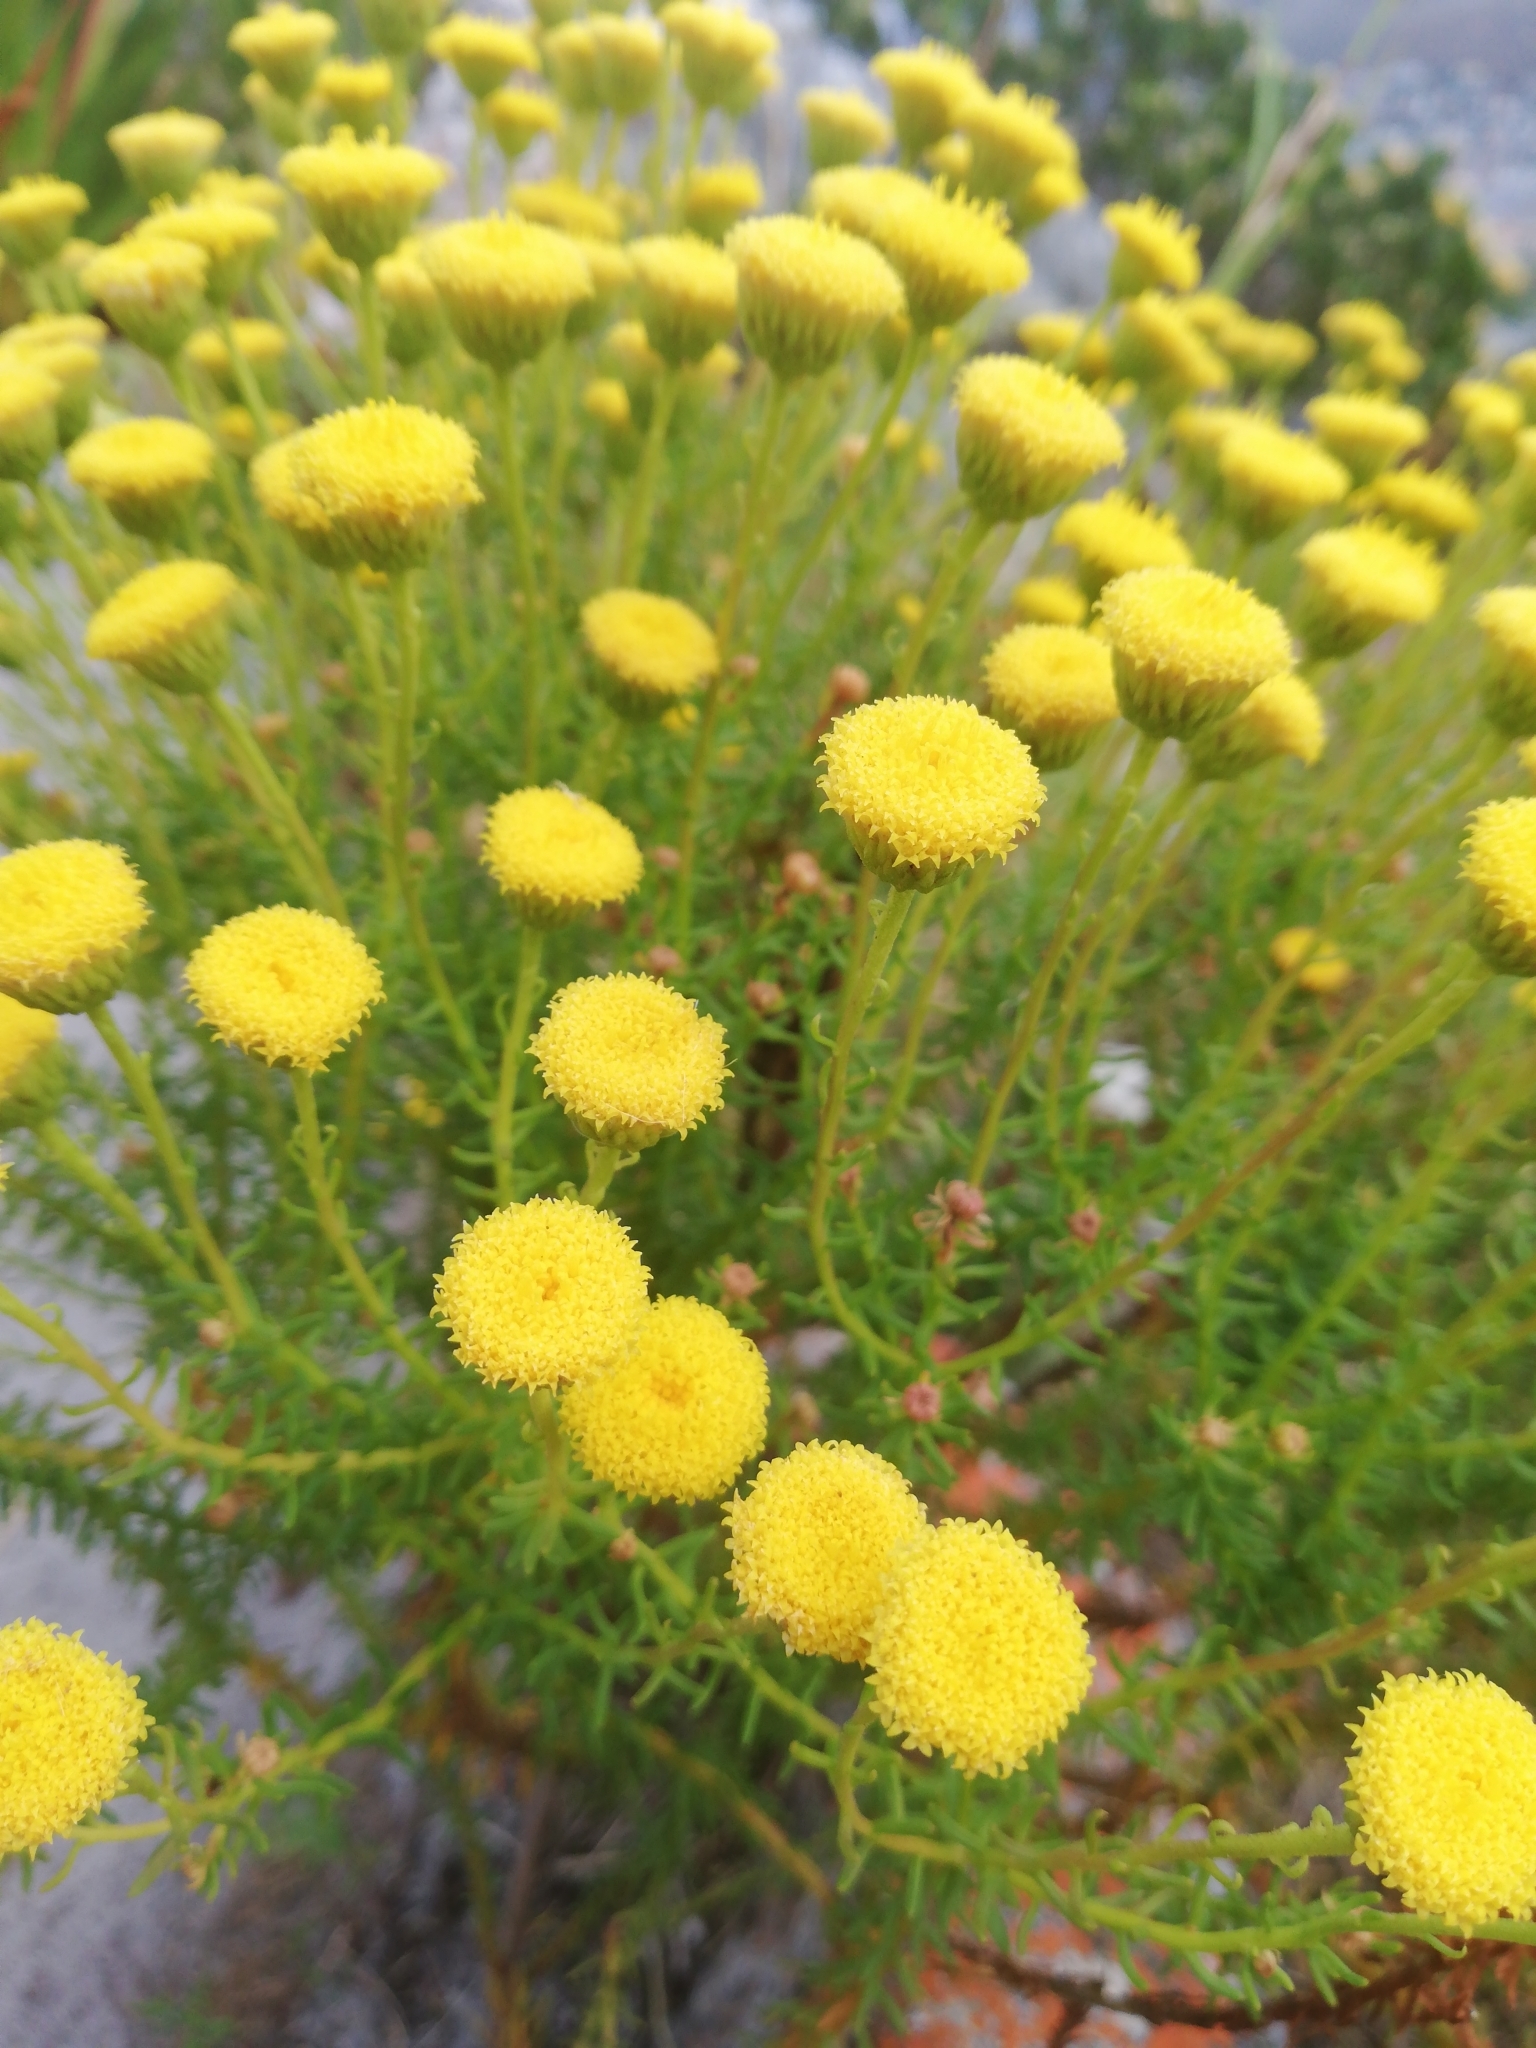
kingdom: Plantae
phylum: Tracheophyta
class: Magnoliopsida
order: Asterales
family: Asteraceae
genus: Chrysocoma
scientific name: Chrysocoma cernua
